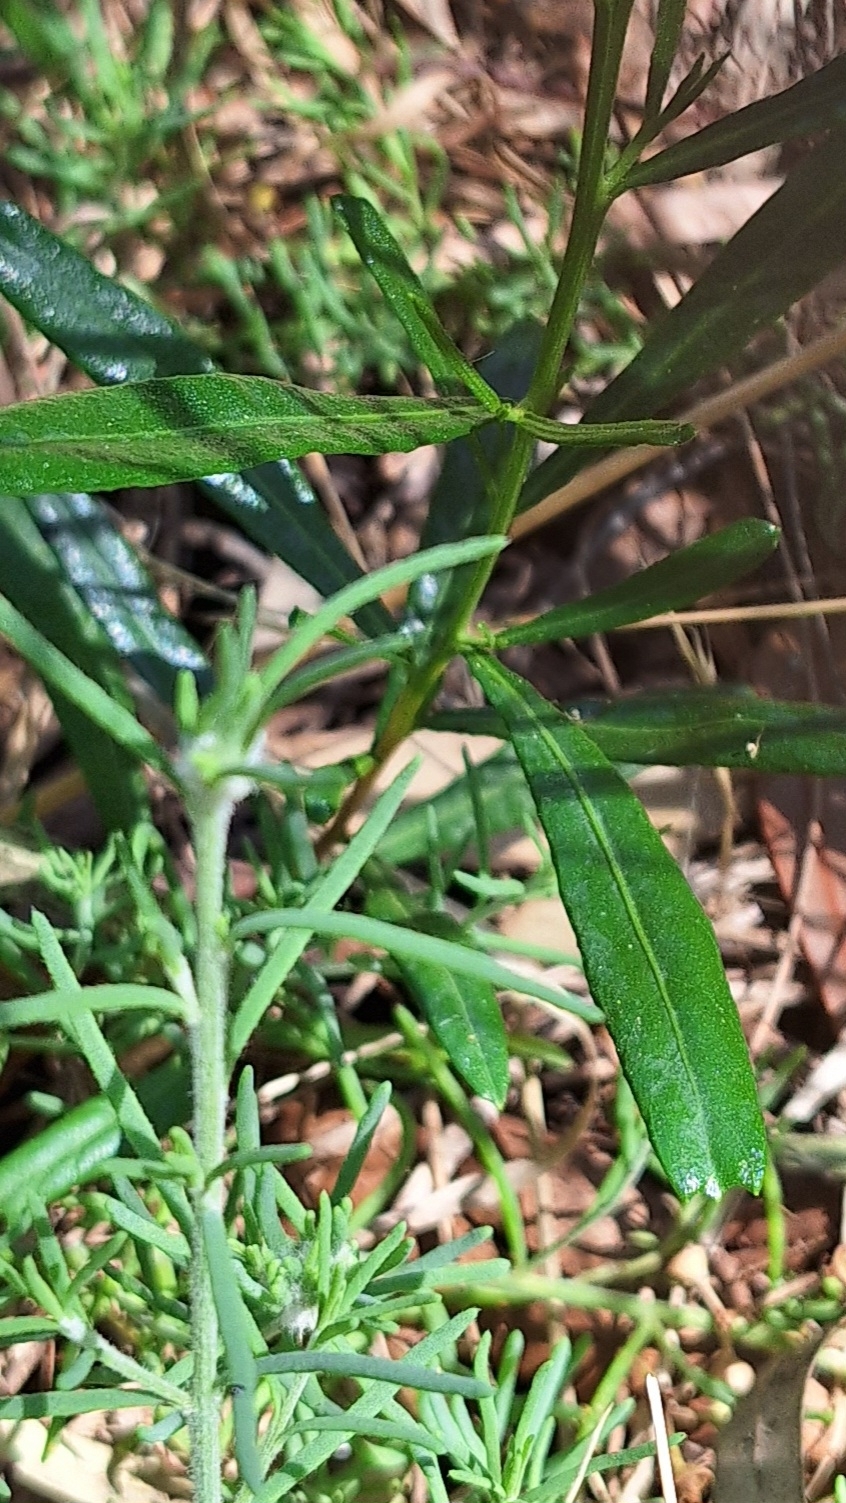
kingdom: Plantae
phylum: Tracheophyta
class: Magnoliopsida
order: Sapindales
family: Sapindaceae
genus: Dodonaea
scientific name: Dodonaea viscosa
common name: Hopbush
